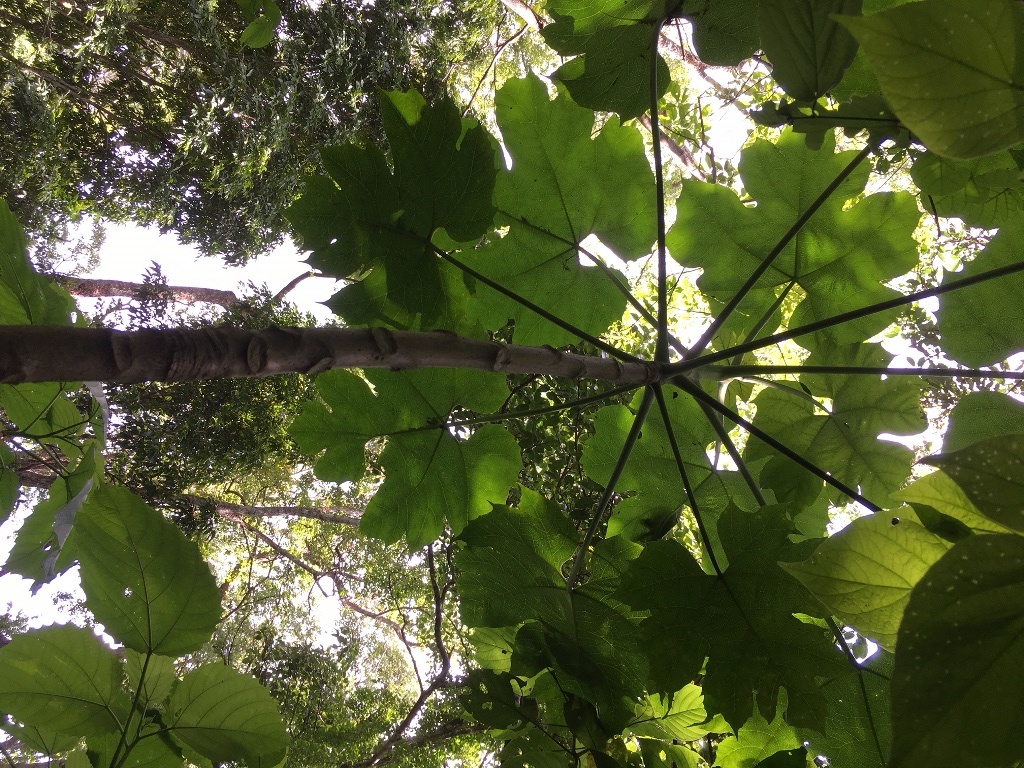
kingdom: Plantae
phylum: Tracheophyta
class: Magnoliopsida
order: Brassicales
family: Caricaceae
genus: Vasconcellea
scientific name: Vasconcellea cauliflora
